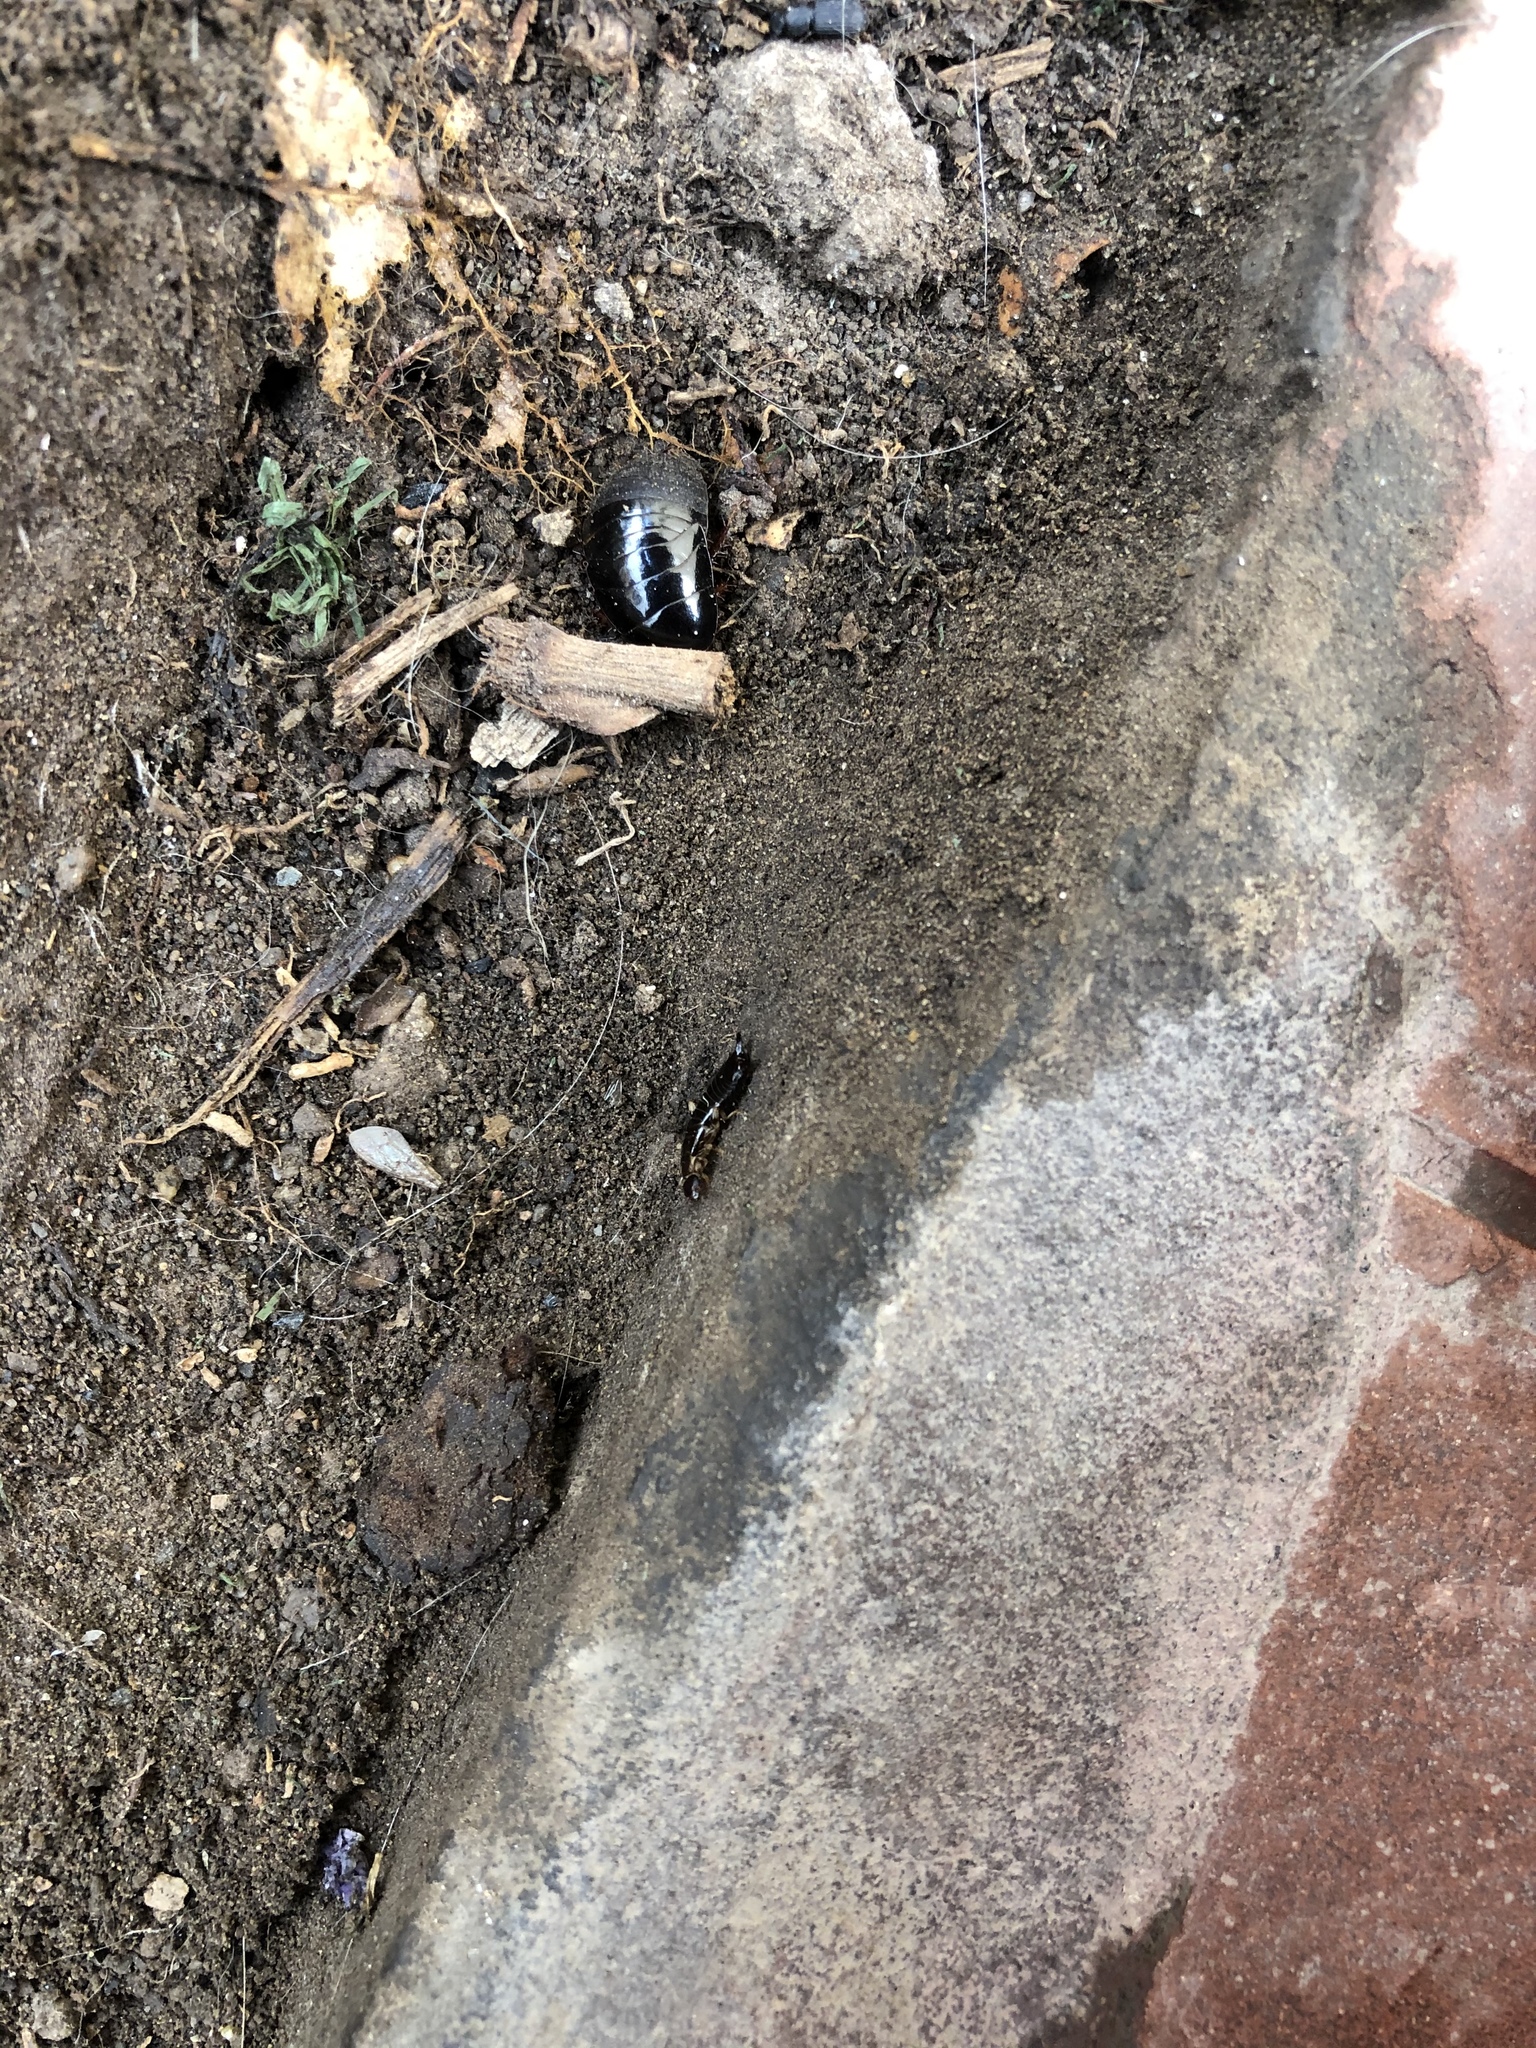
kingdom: Animalia
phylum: Arthropoda
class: Insecta
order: Blattodea
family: Blaberidae
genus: Pycnoscelus
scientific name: Pycnoscelus surinamensis
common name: Surinam cockroach
